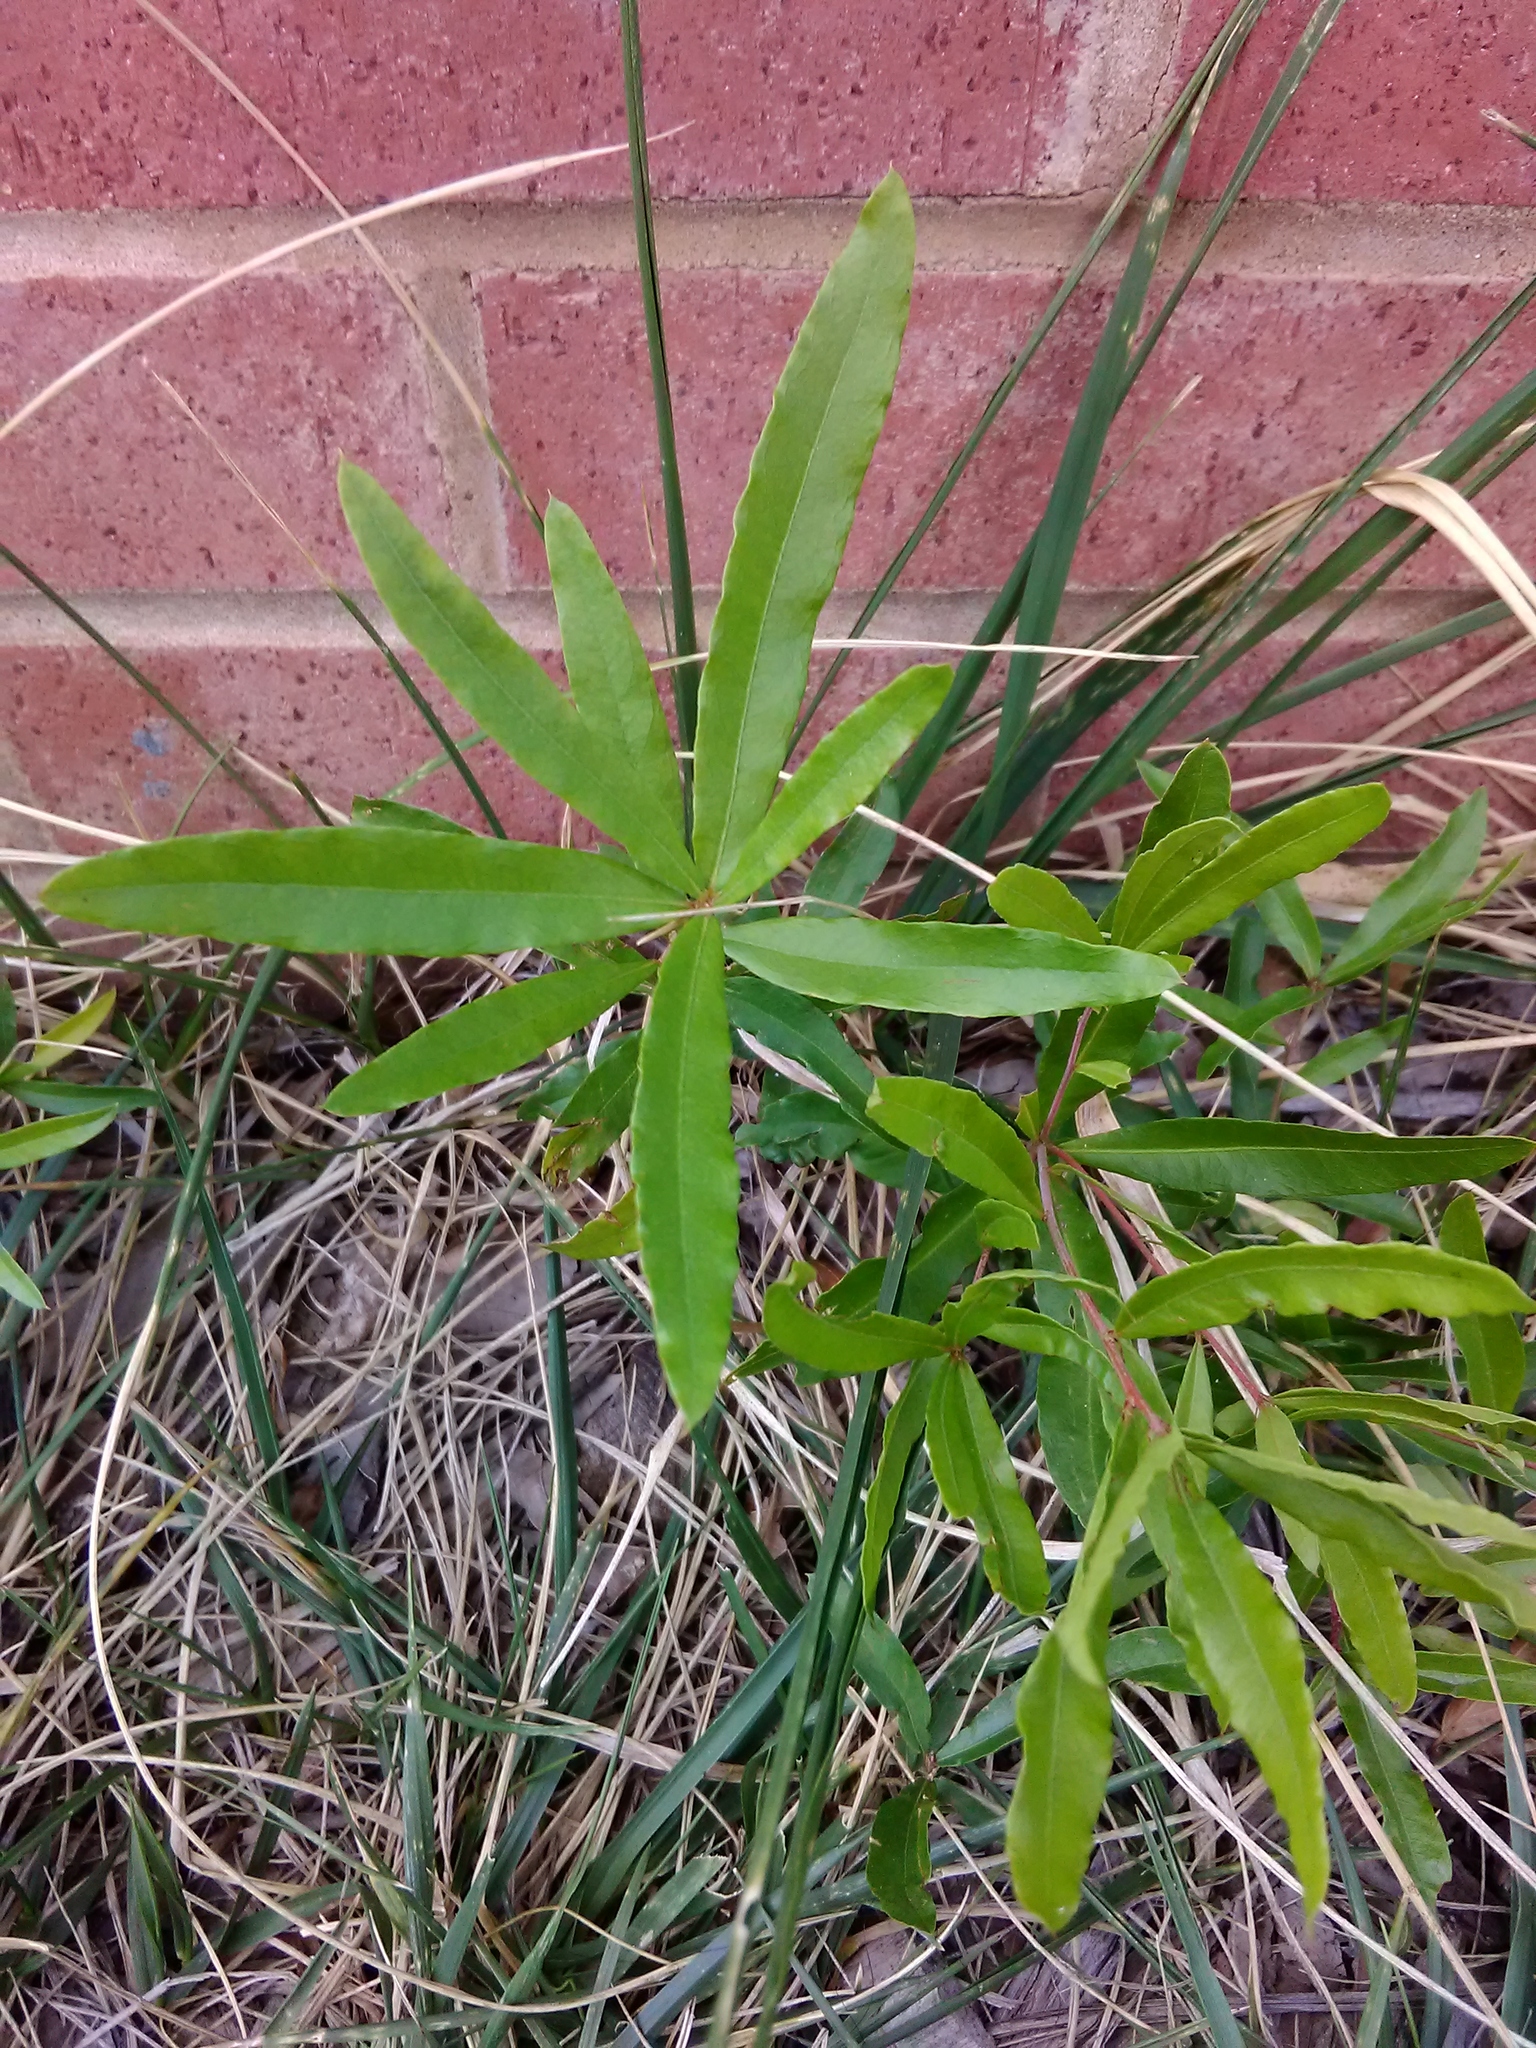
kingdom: Plantae
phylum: Tracheophyta
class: Magnoliopsida
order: Fagales
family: Fagaceae
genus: Quercus
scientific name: Quercus phellos
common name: Willow oak
